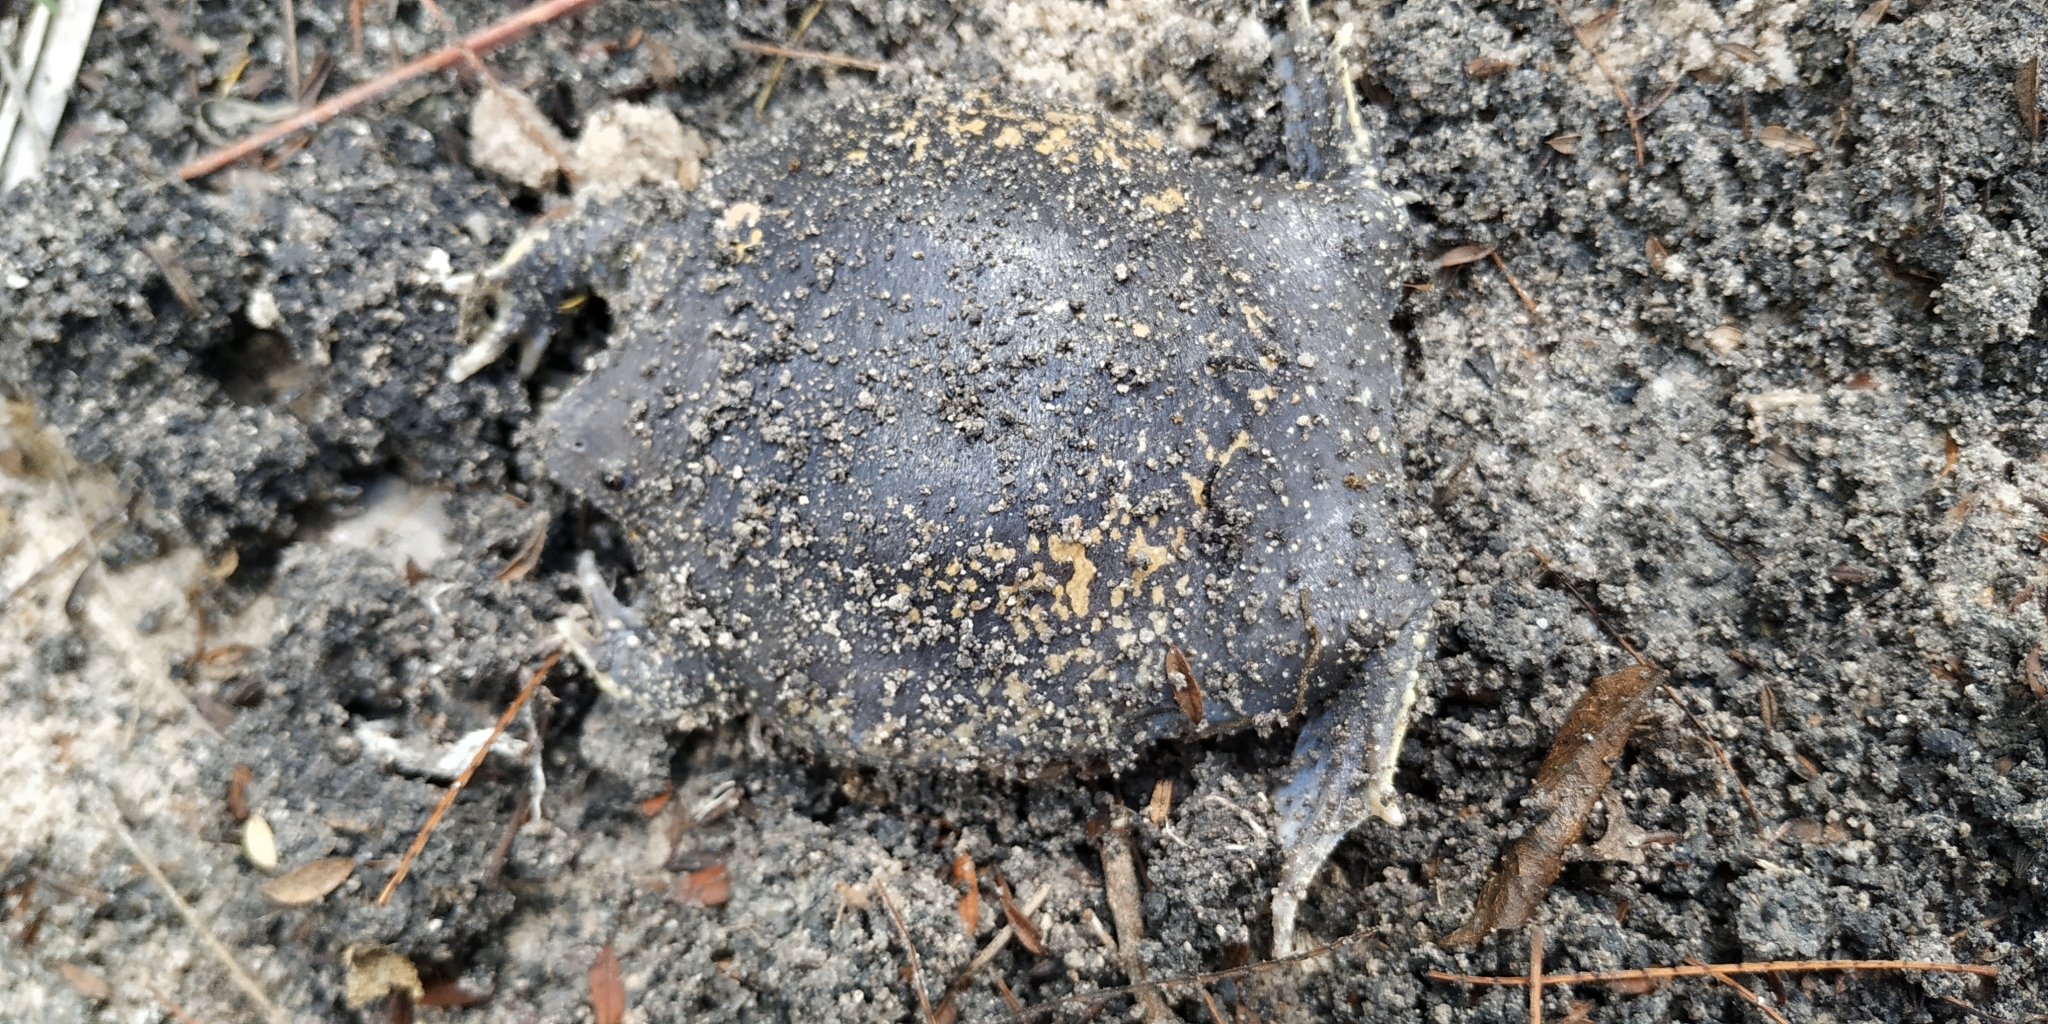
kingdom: Animalia
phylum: Chordata
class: Amphibia
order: Anura
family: Rhinophrynidae
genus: Rhinophrynus
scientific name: Rhinophrynus dorsalis
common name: Mexican burrowing toad
